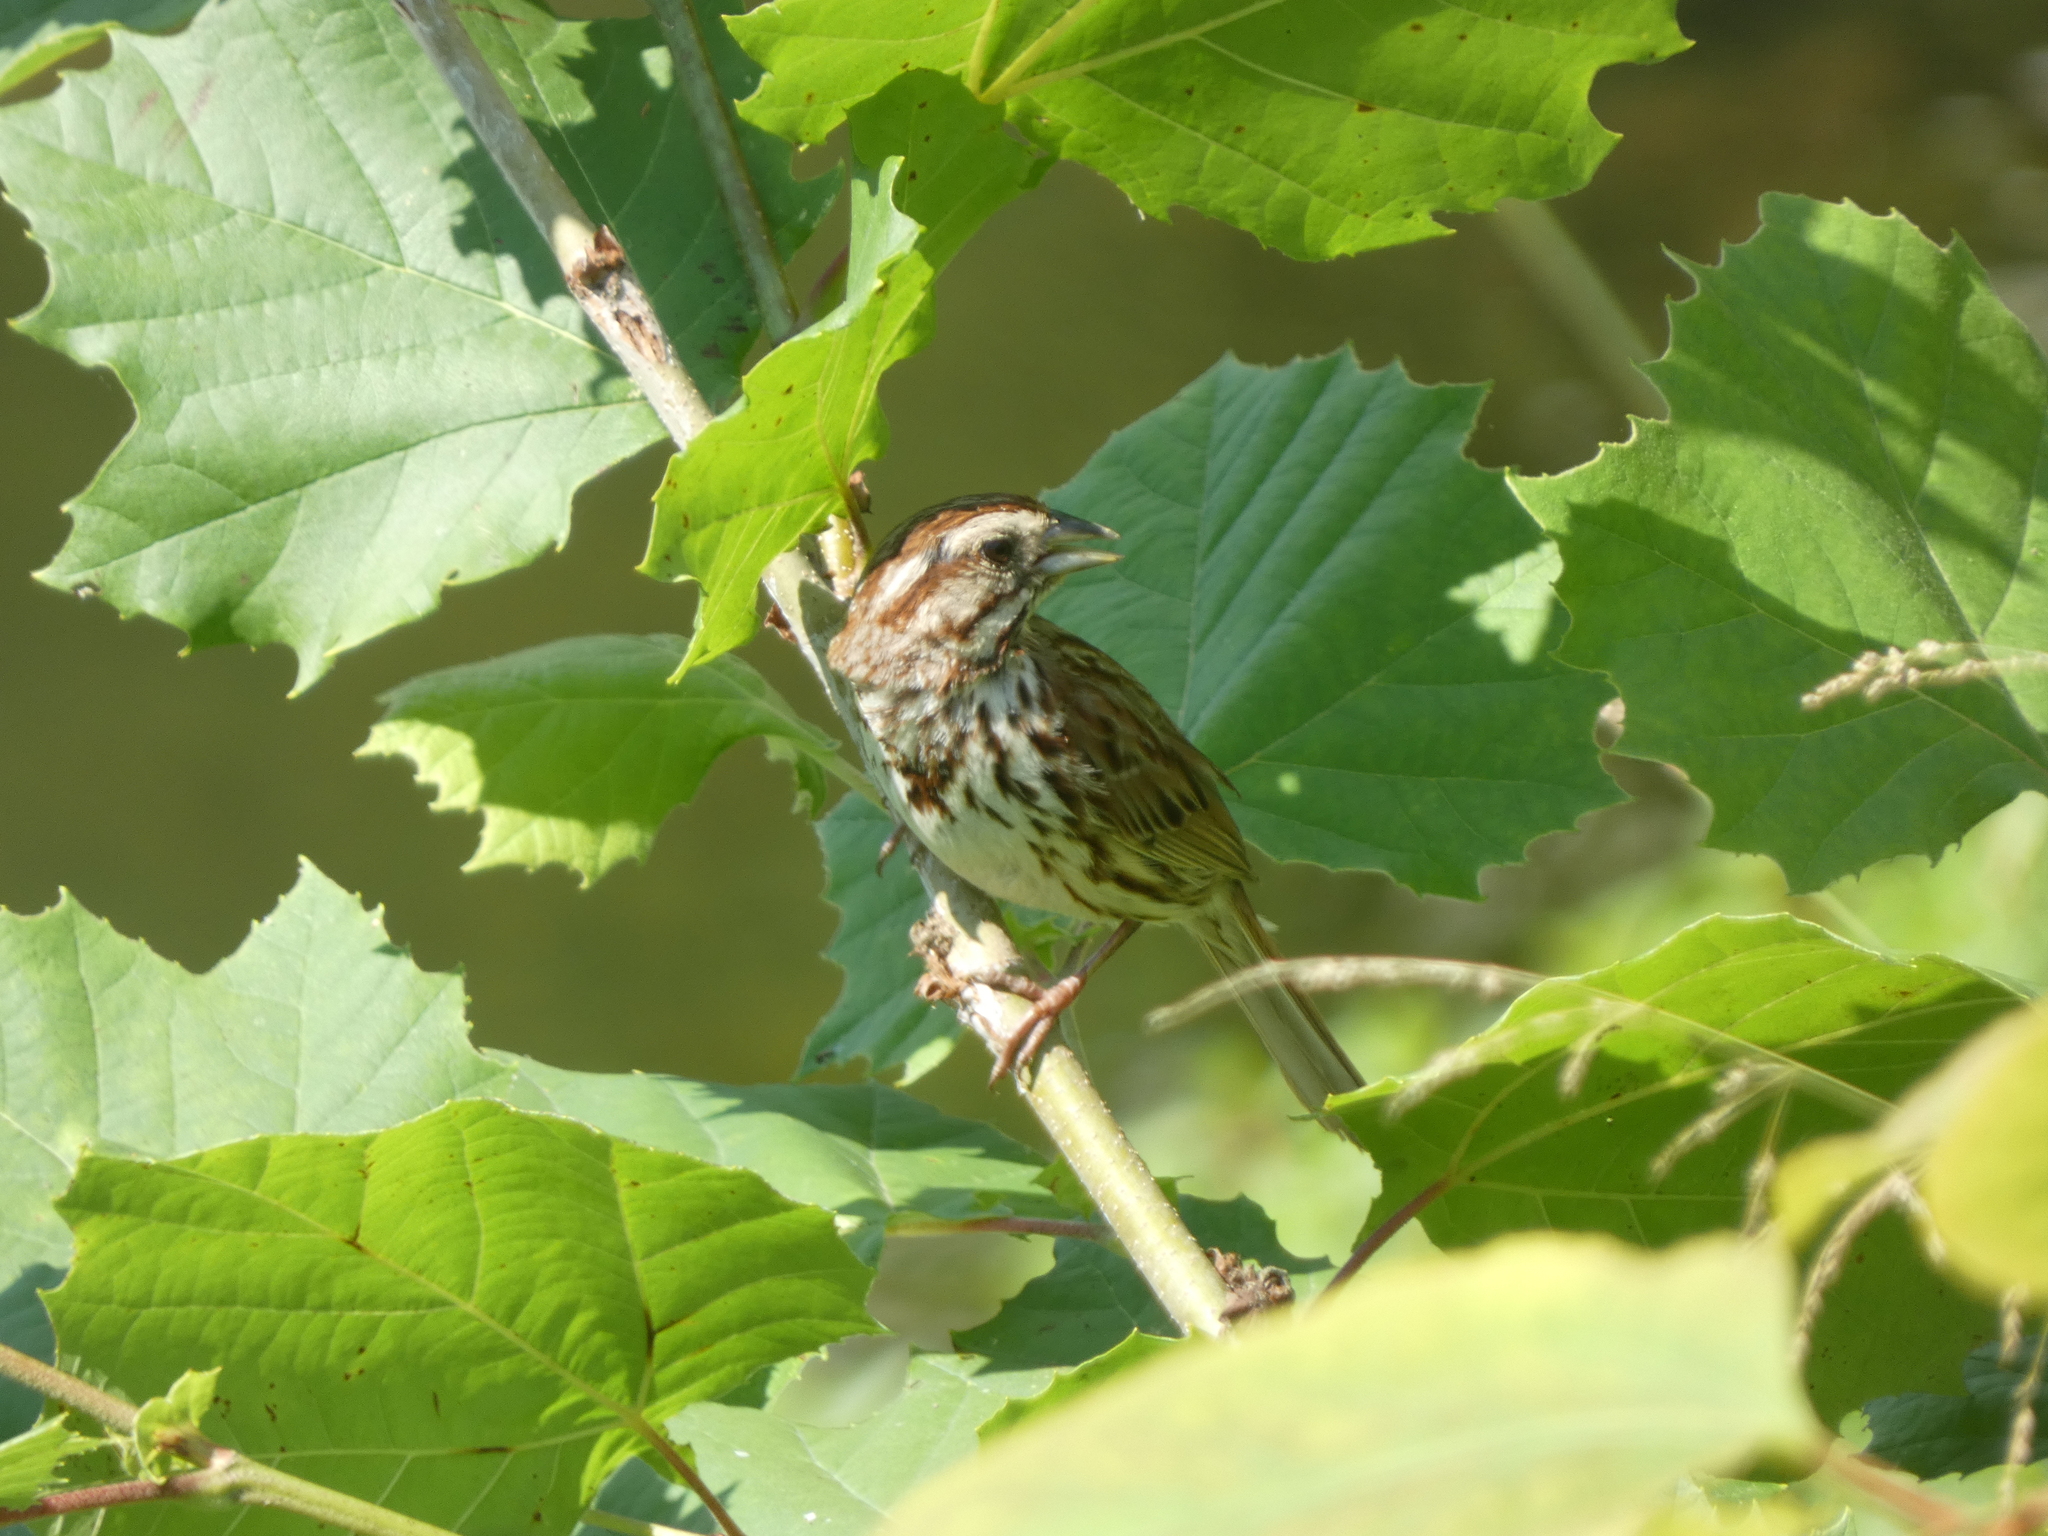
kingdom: Animalia
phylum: Chordata
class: Aves
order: Passeriformes
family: Passerellidae
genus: Melospiza
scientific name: Melospiza melodia
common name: Song sparrow
